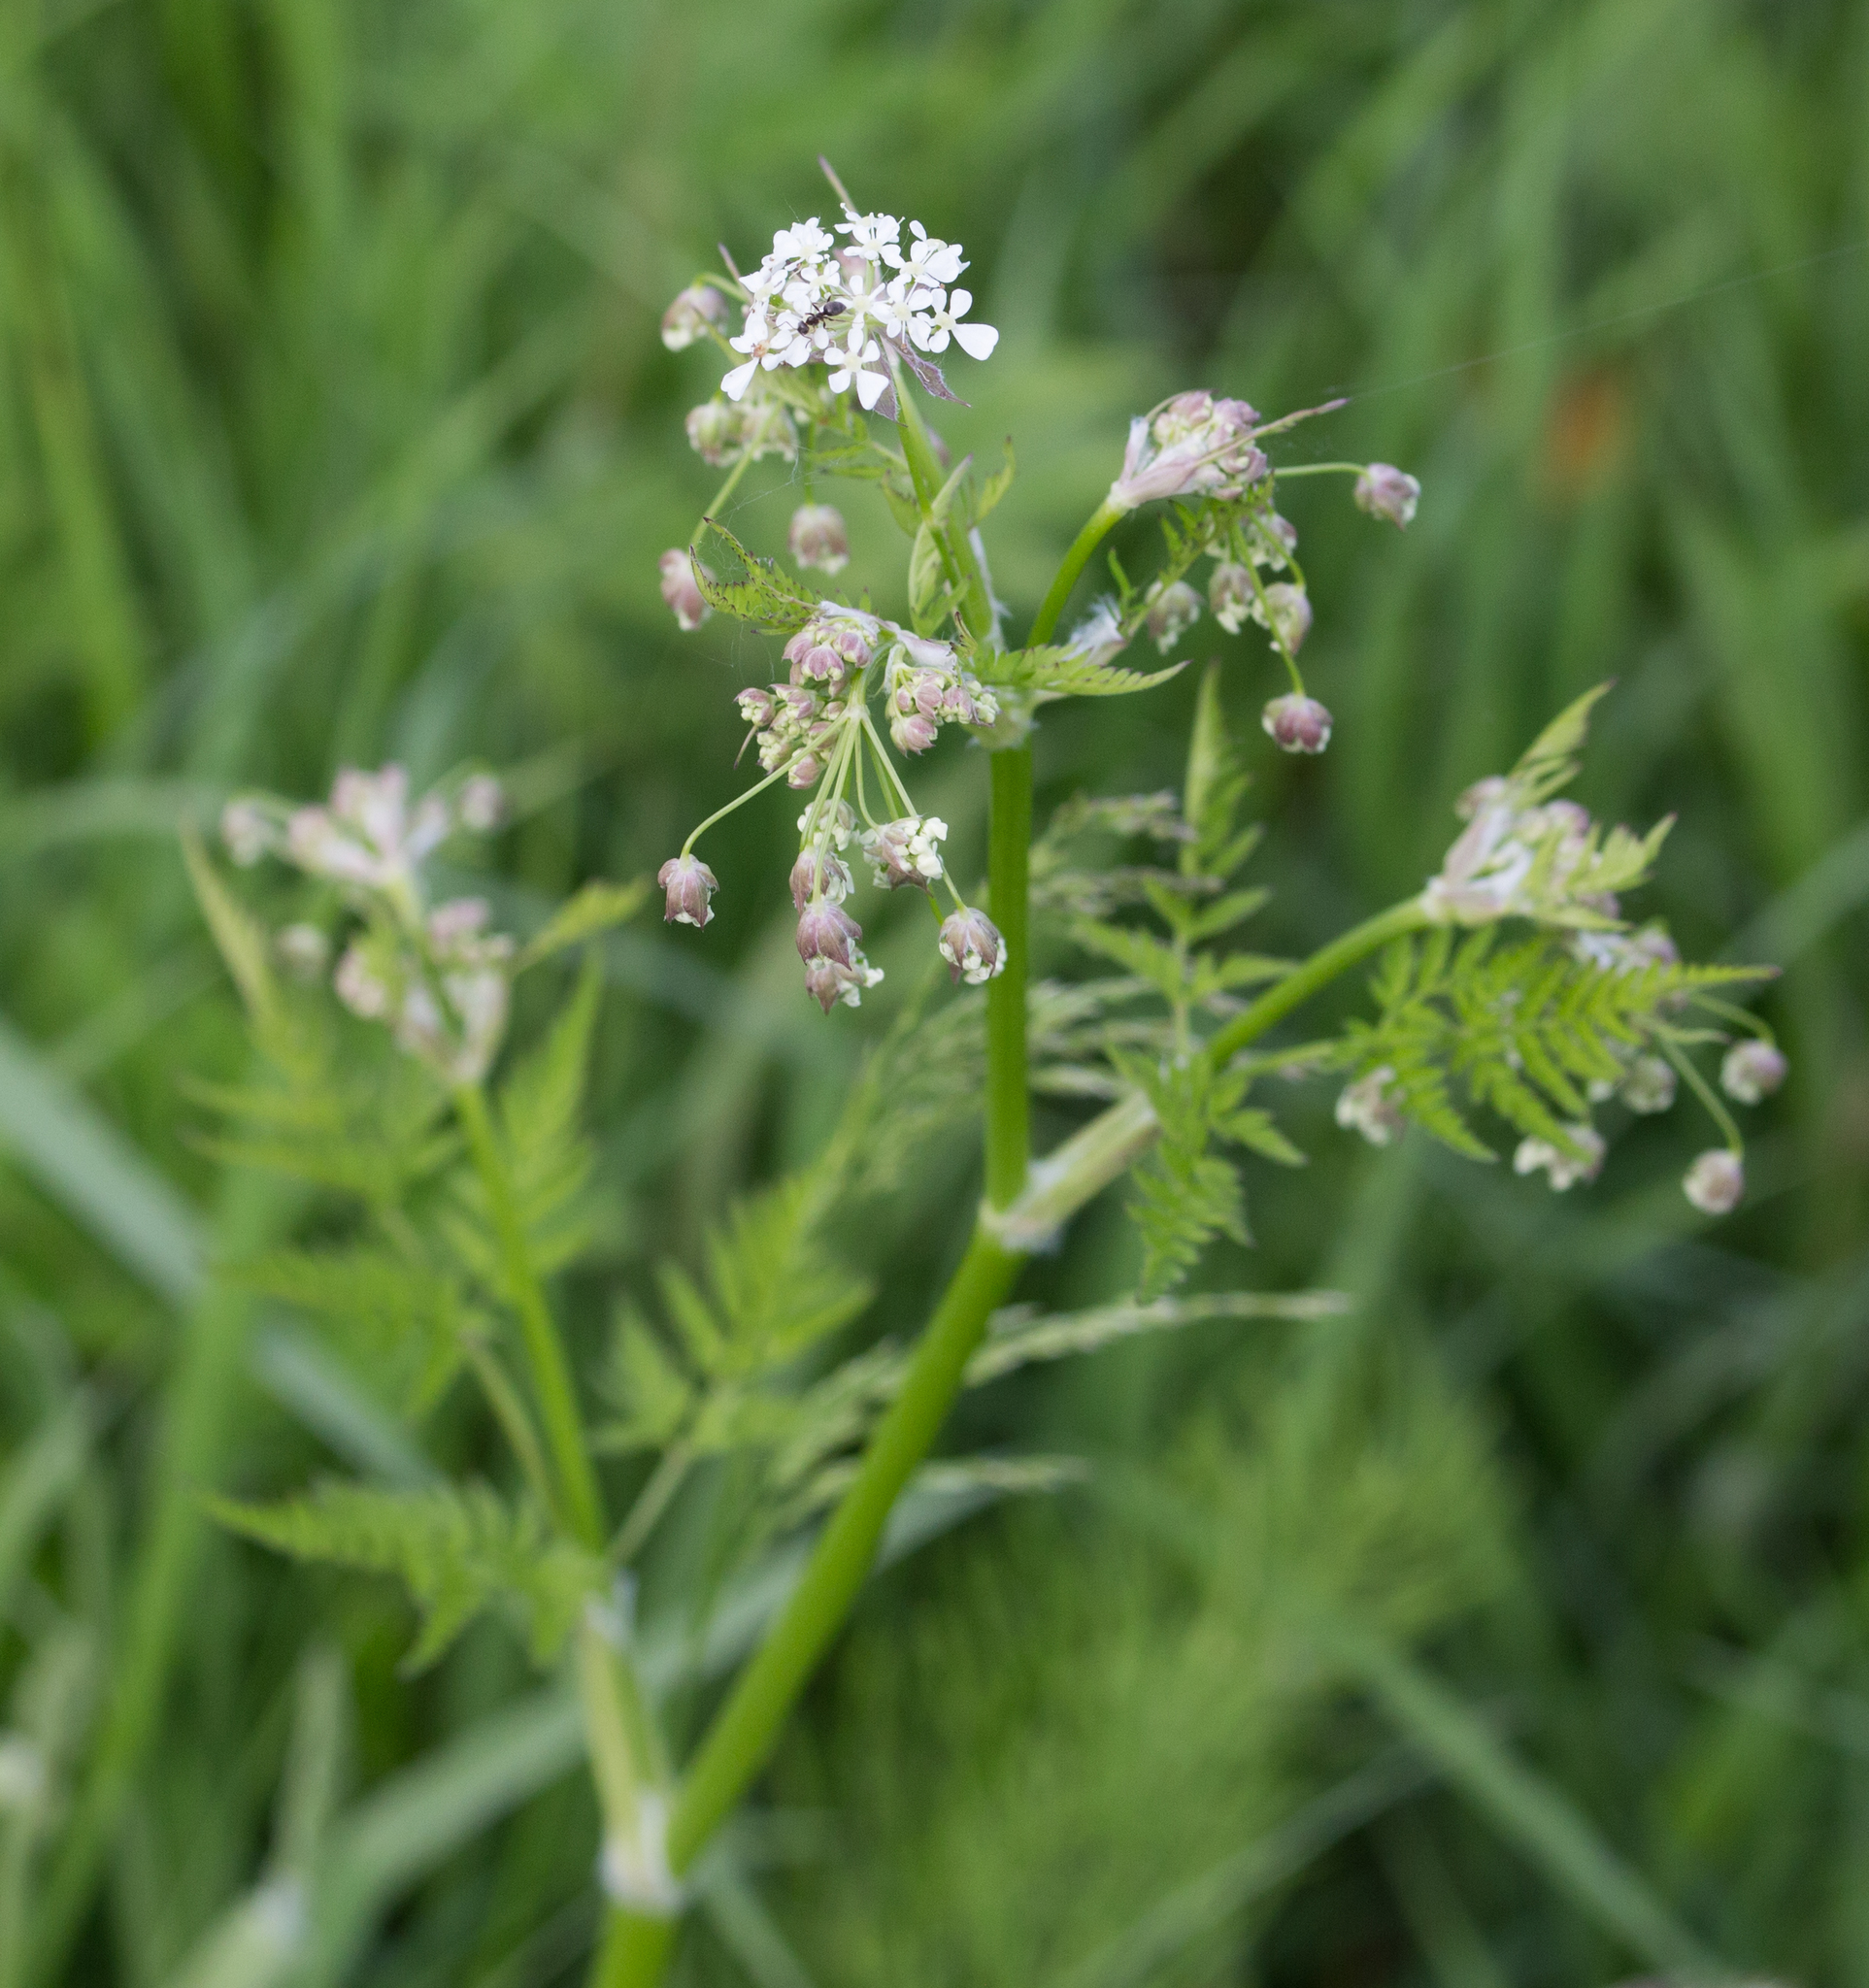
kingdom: Plantae
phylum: Tracheophyta
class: Magnoliopsida
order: Apiales
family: Apiaceae
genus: Anthriscus
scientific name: Anthriscus sylvestris
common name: Cow parsley
